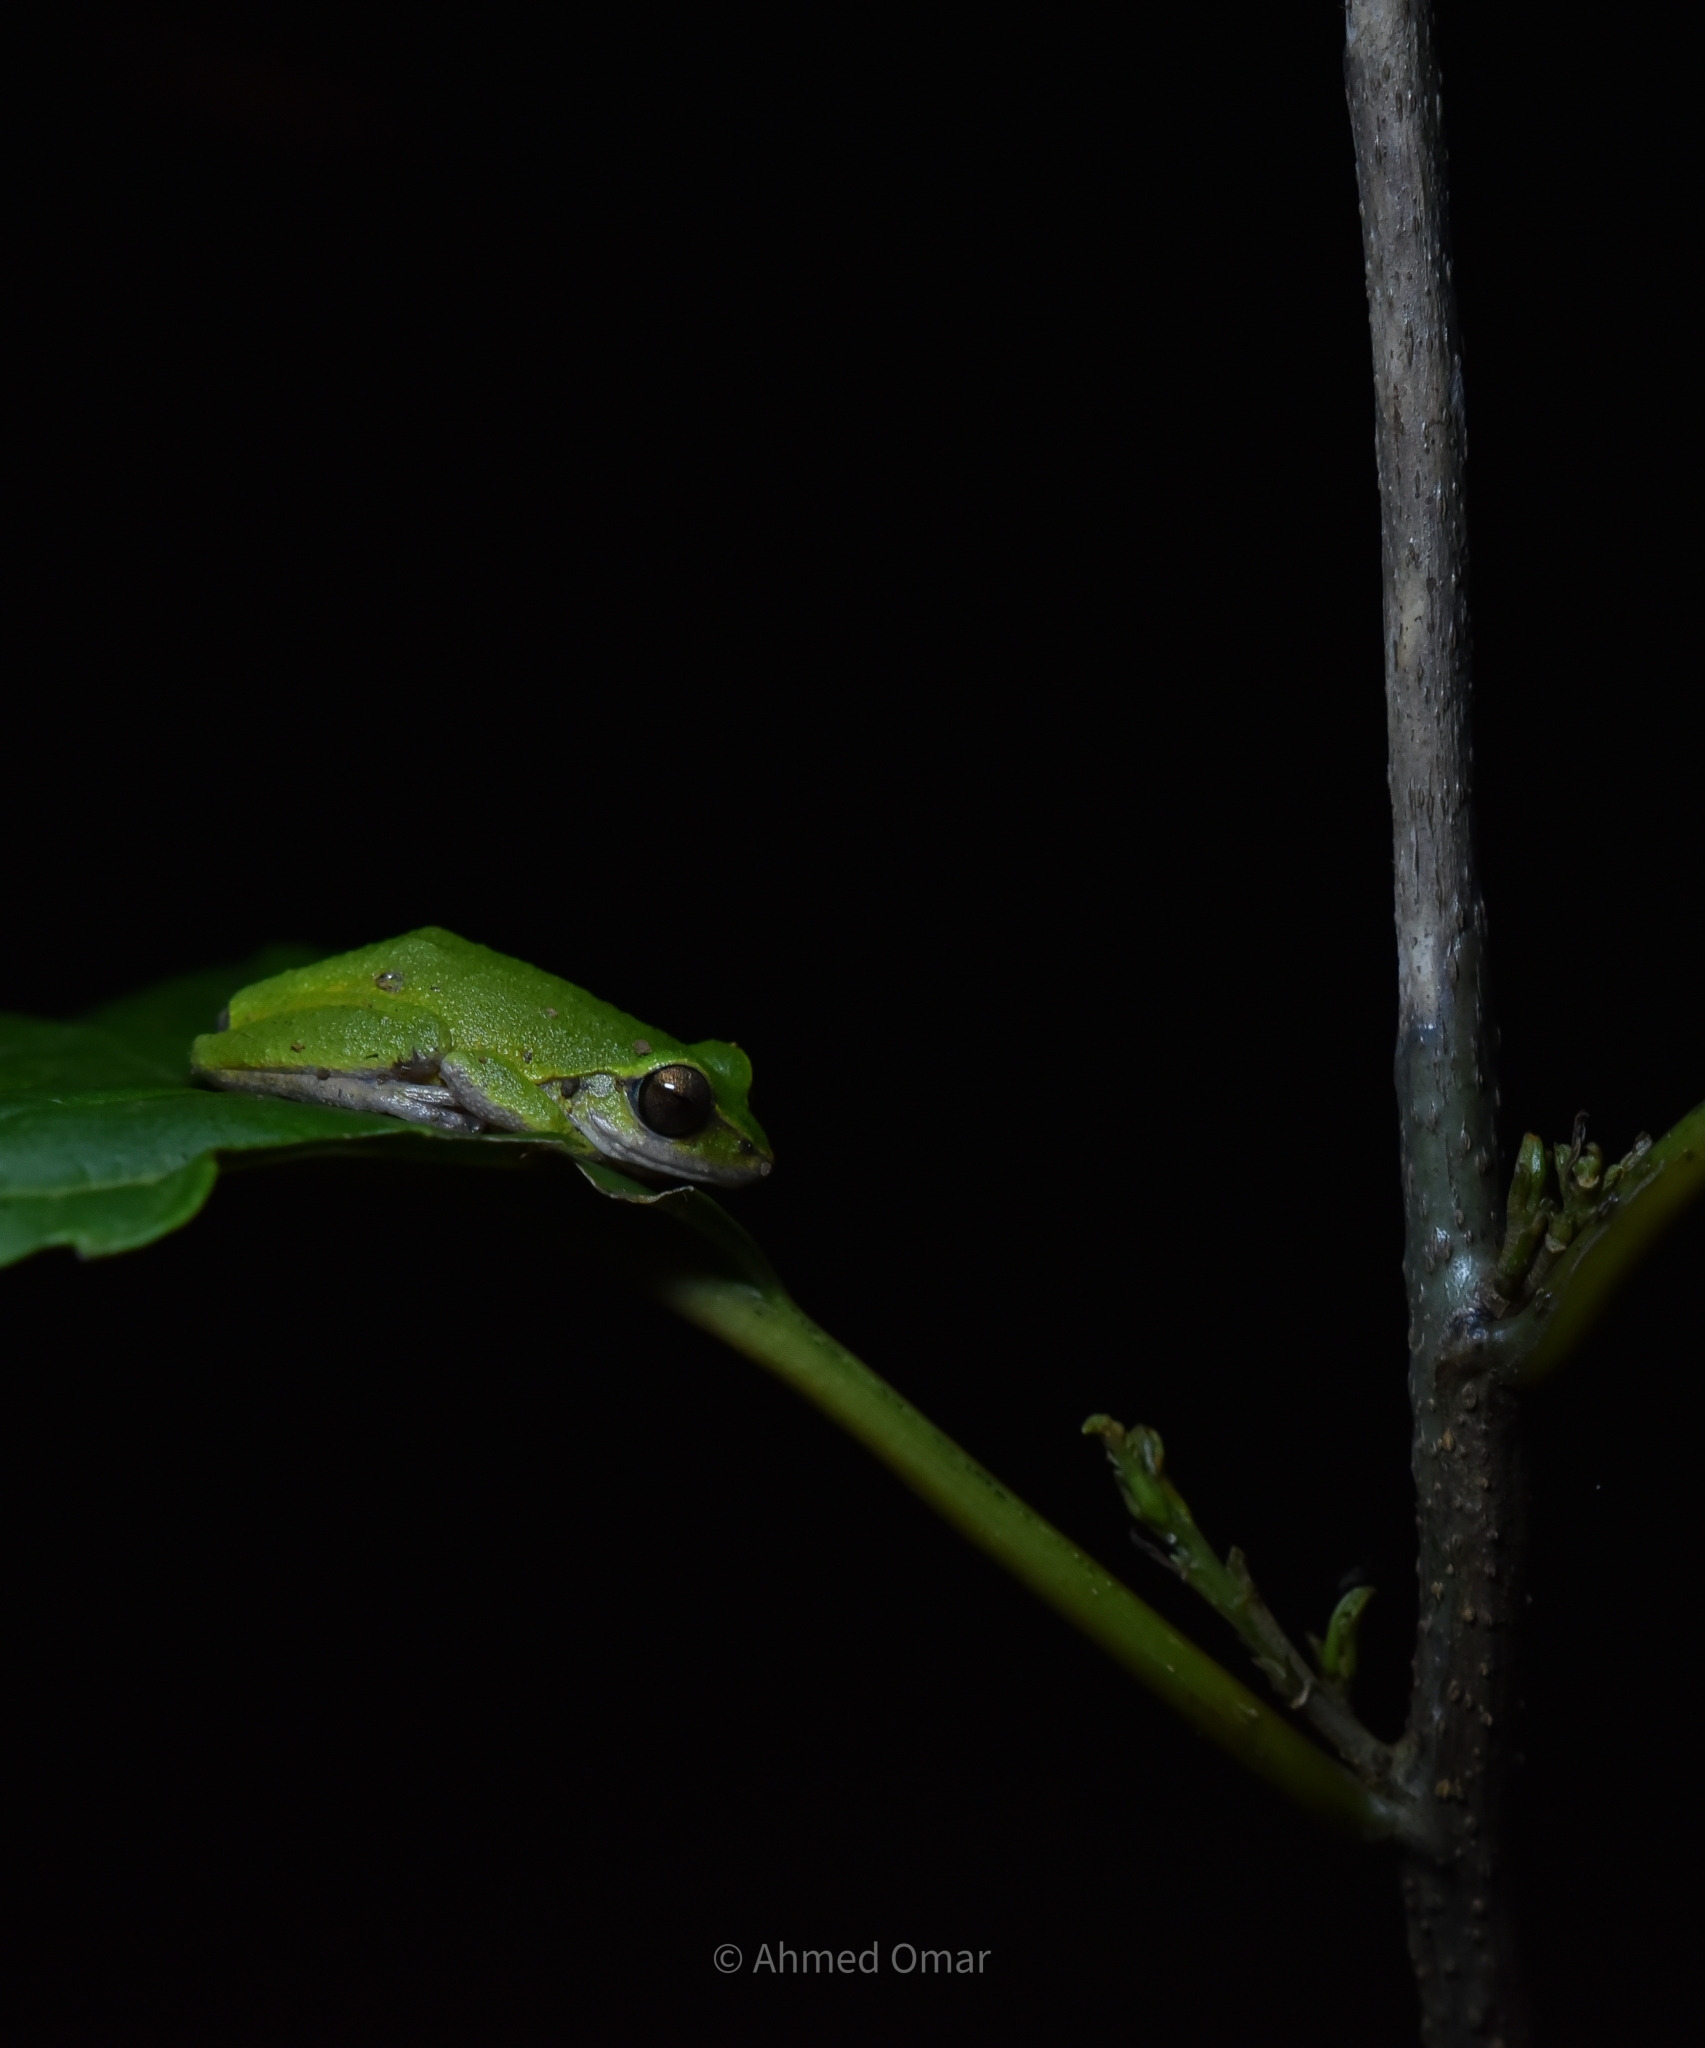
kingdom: Animalia
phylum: Chordata
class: Amphibia
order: Anura
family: Rhacophoridae
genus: Raorchestes
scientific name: Raorchestes chromasynchysi
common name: Confusing green bush frog
